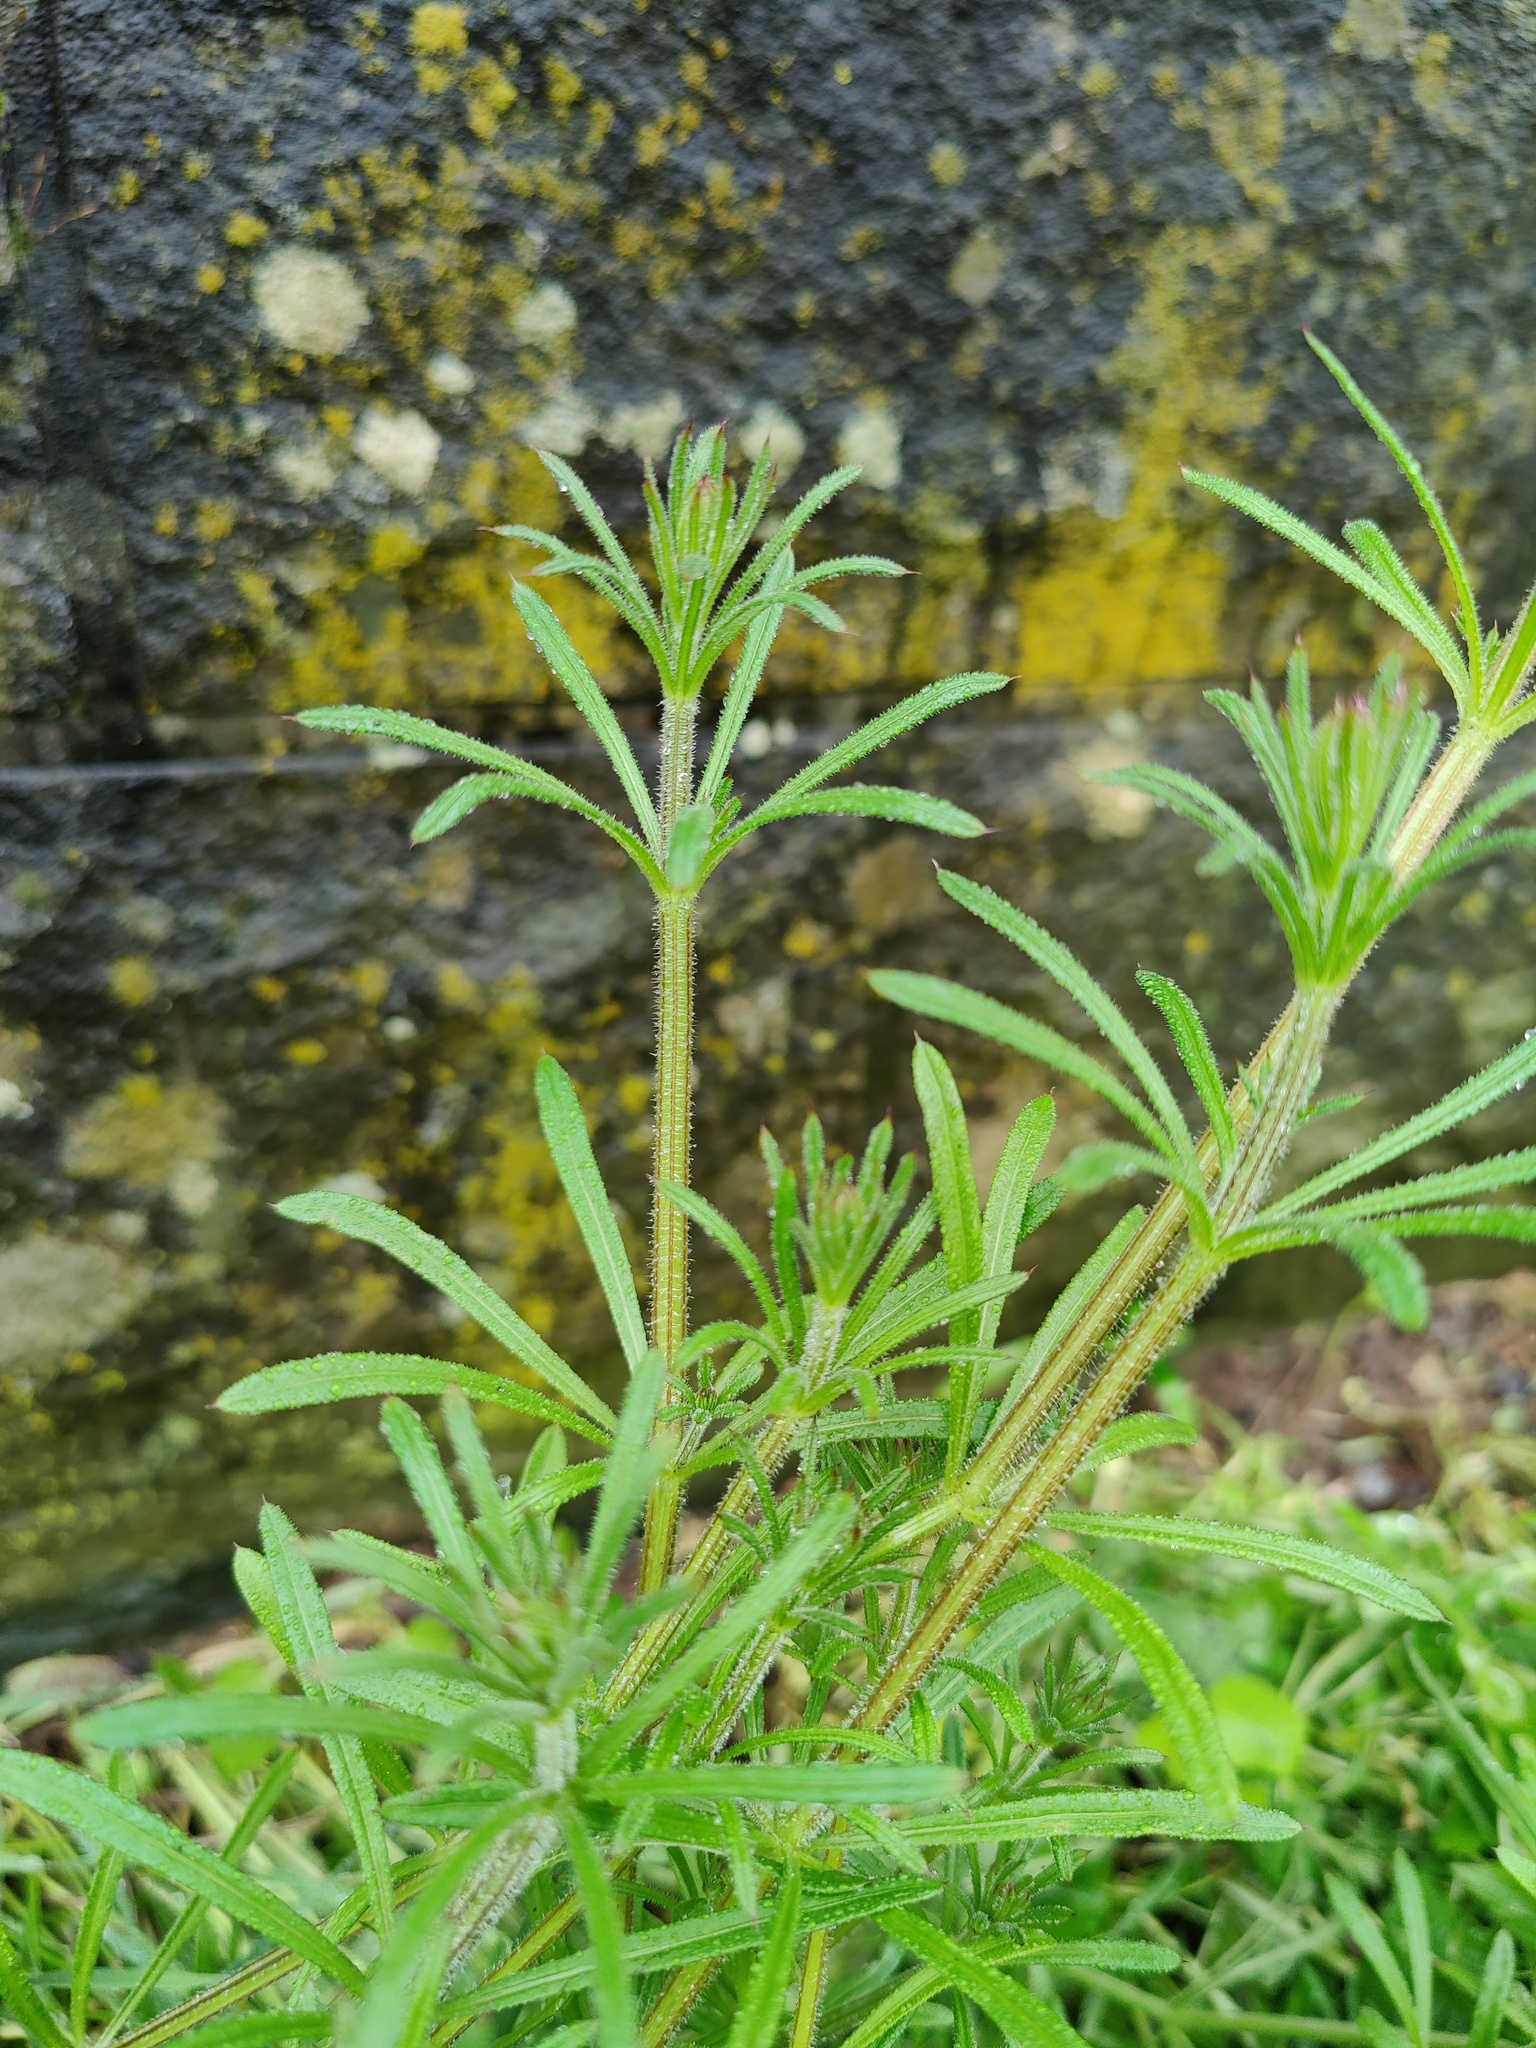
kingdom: Plantae
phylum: Tracheophyta
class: Magnoliopsida
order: Gentianales
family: Rubiaceae
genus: Galium
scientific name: Galium aparine
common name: Cleavers
